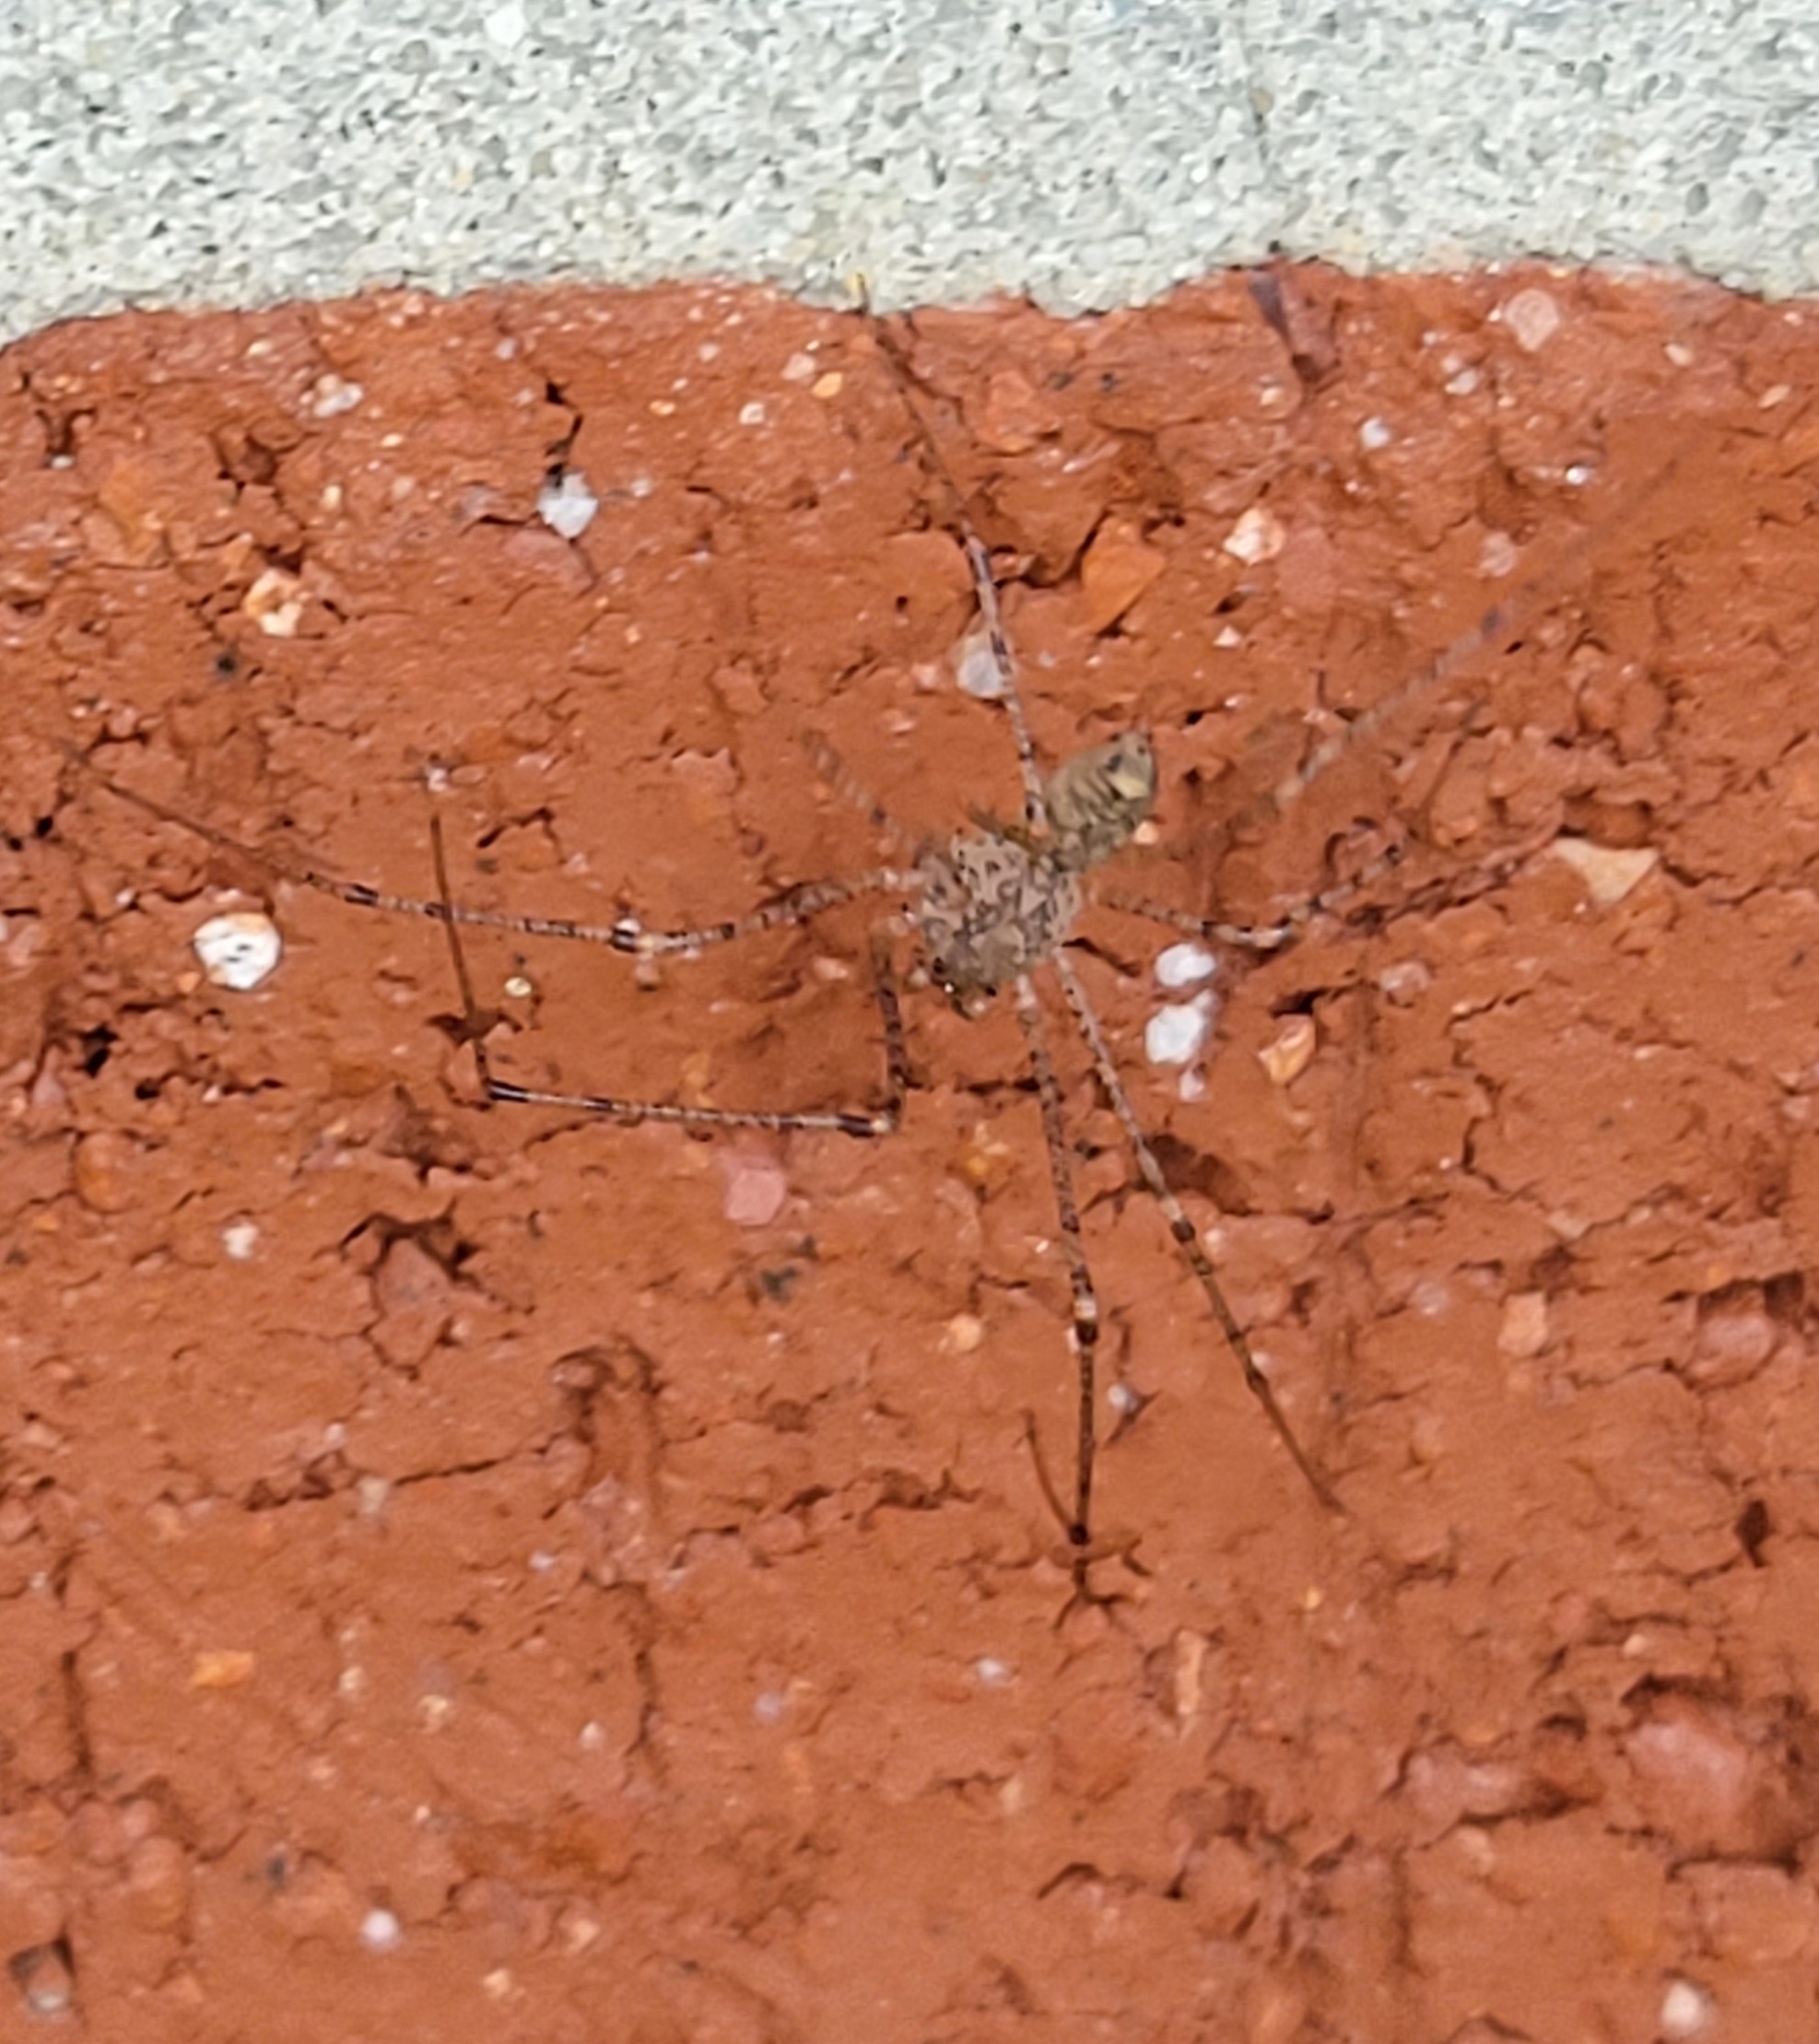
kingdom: Animalia
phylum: Arthropoda
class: Arachnida
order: Araneae
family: Scytodidae
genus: Scytodes
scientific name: Scytodes atlacoya
